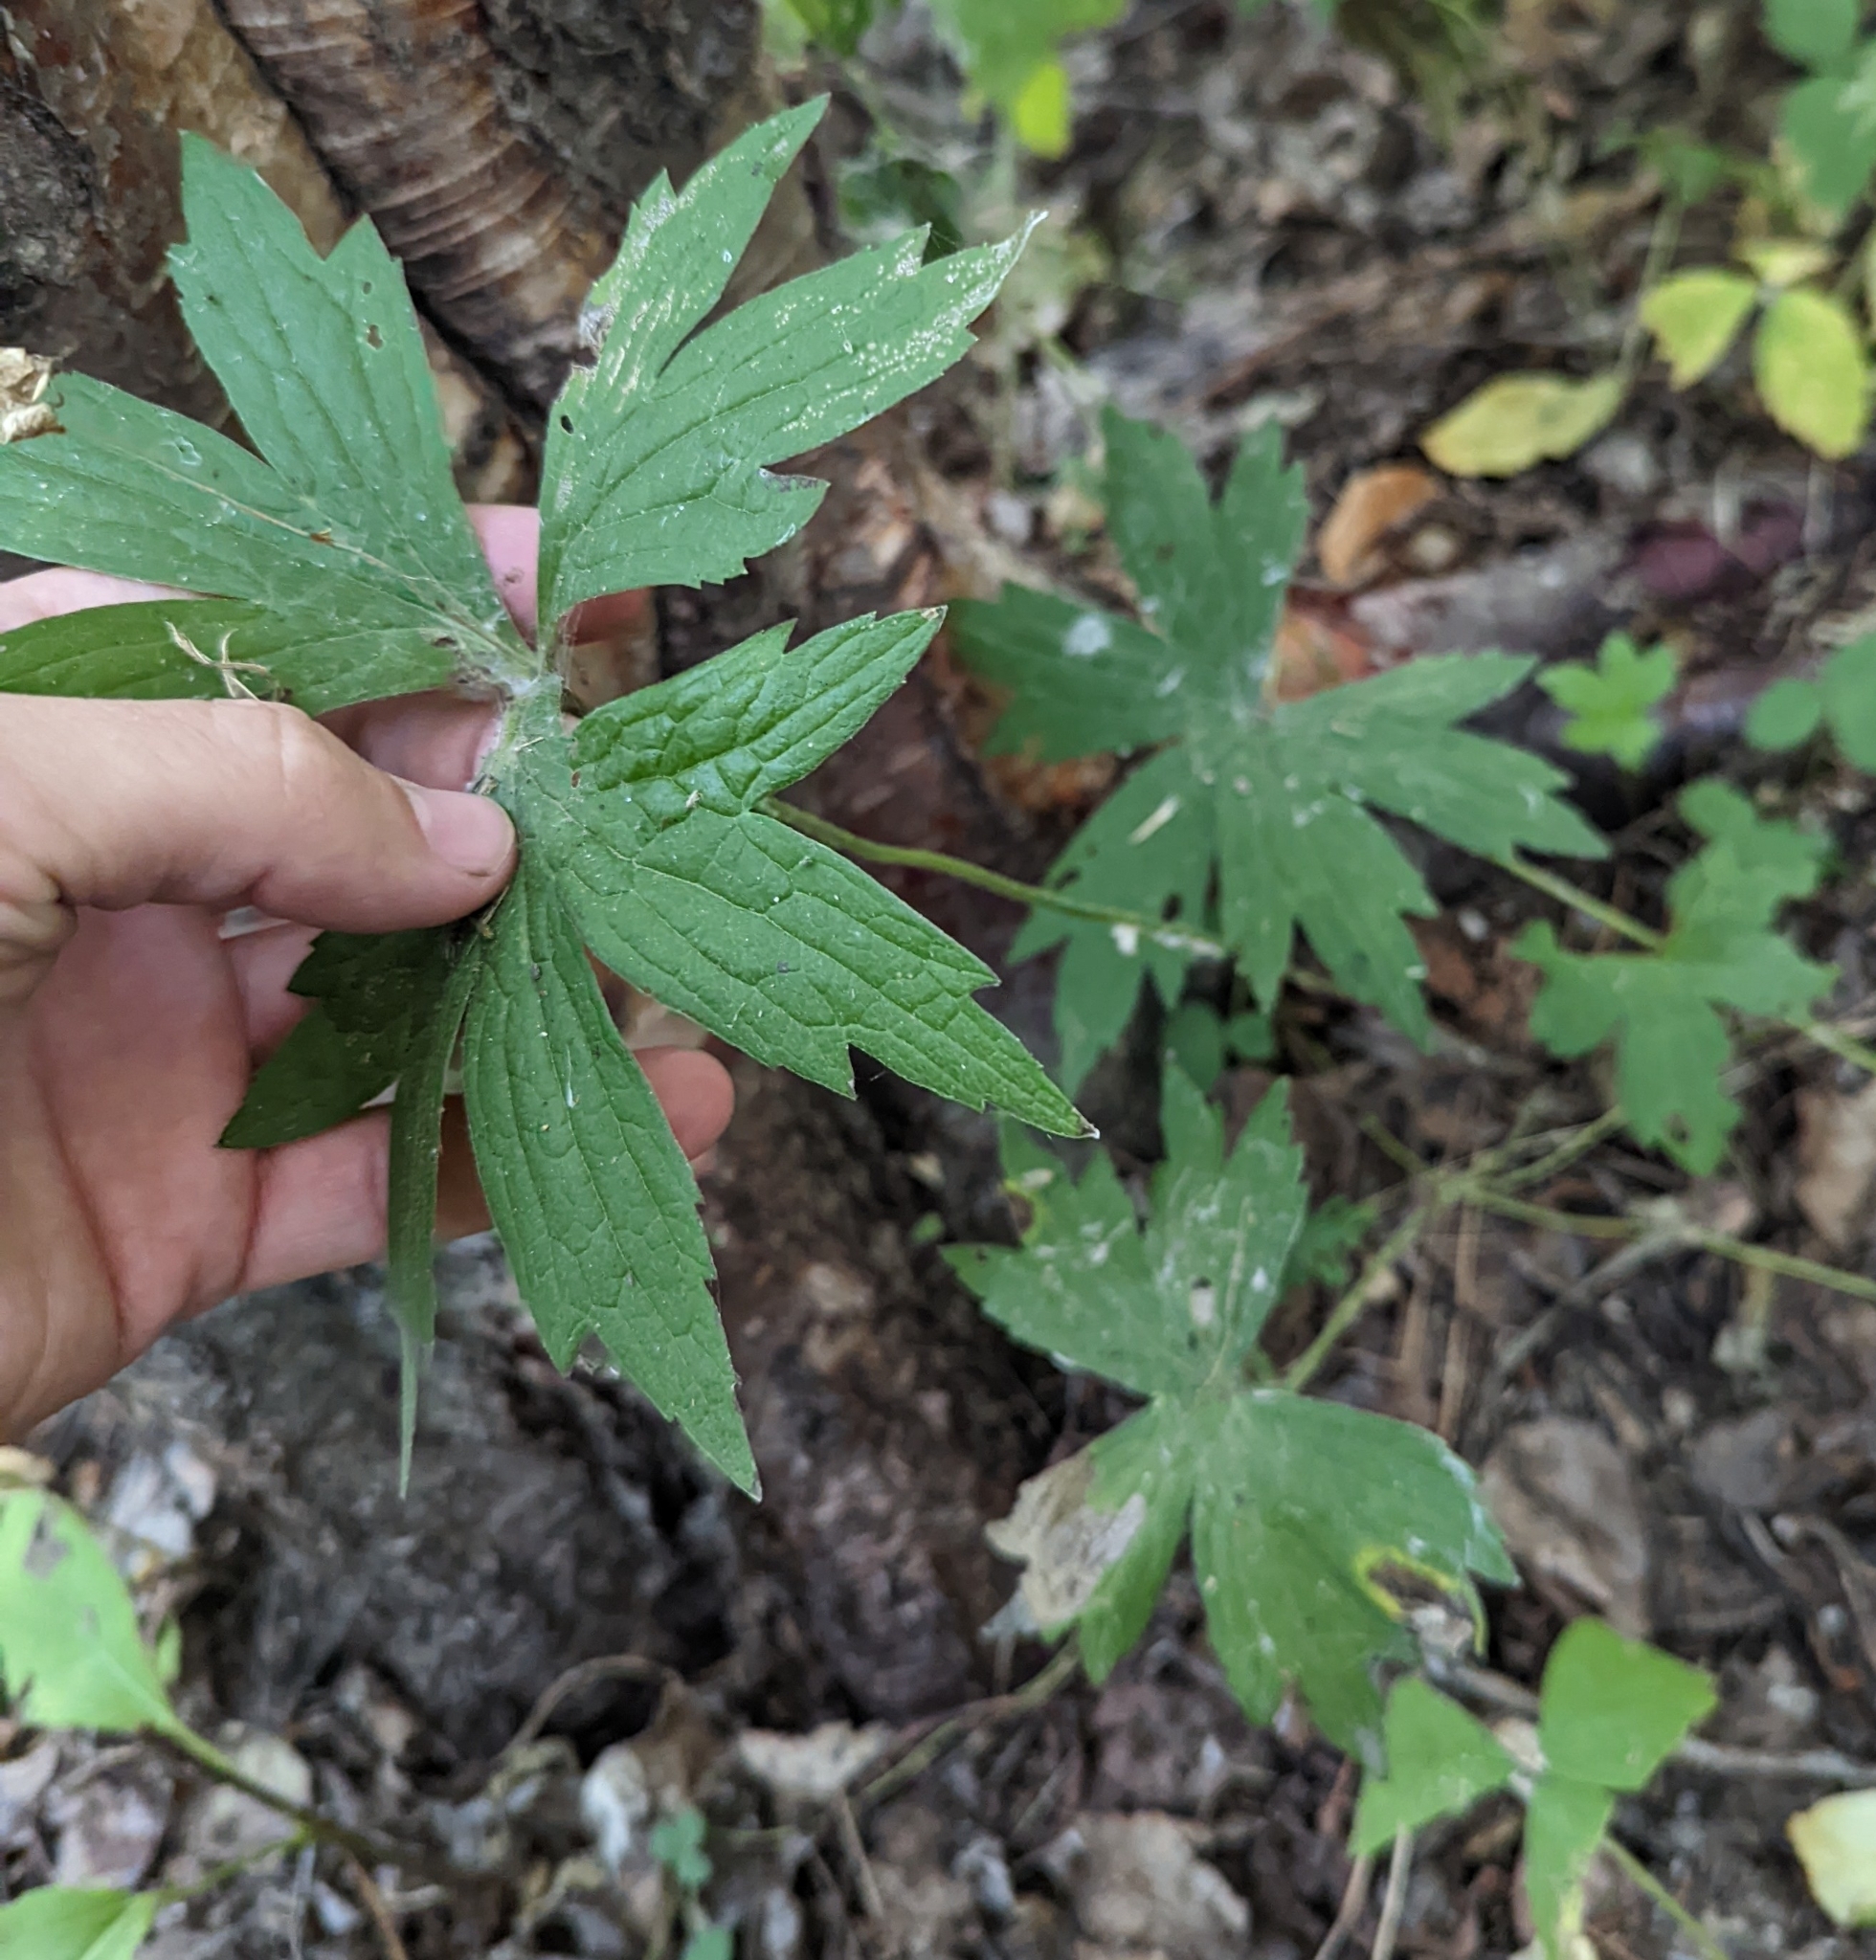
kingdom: Plantae
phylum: Tracheophyta
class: Magnoliopsida
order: Ranunculales
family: Ranunculaceae
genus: Anemonastrum
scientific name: Anemonastrum canadense
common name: Canada anemone
